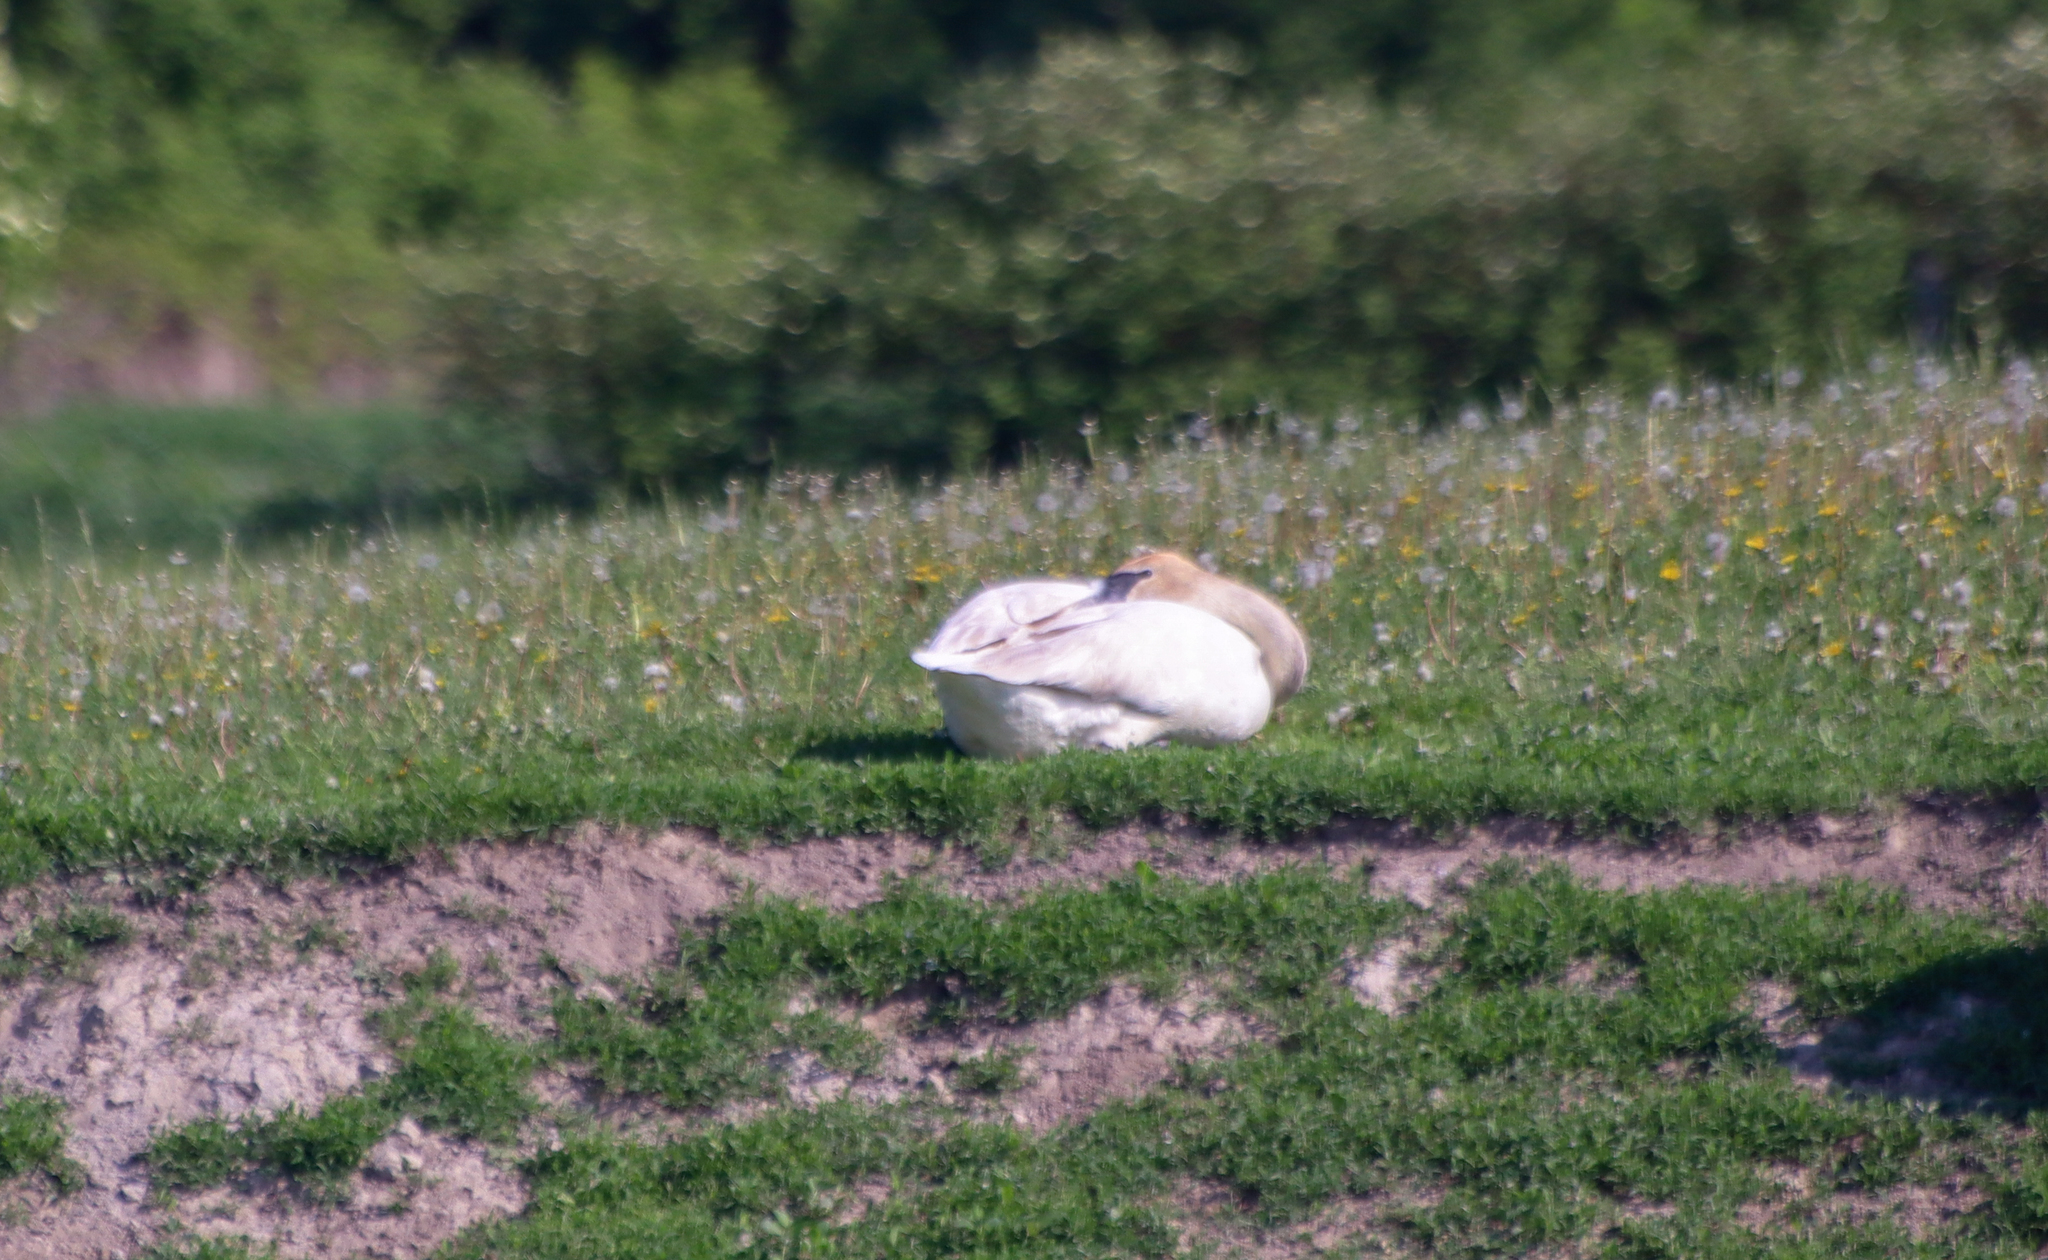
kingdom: Animalia
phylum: Chordata
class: Aves
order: Anseriformes
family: Anatidae
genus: Cygnus
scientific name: Cygnus buccinator
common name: Trumpeter swan
